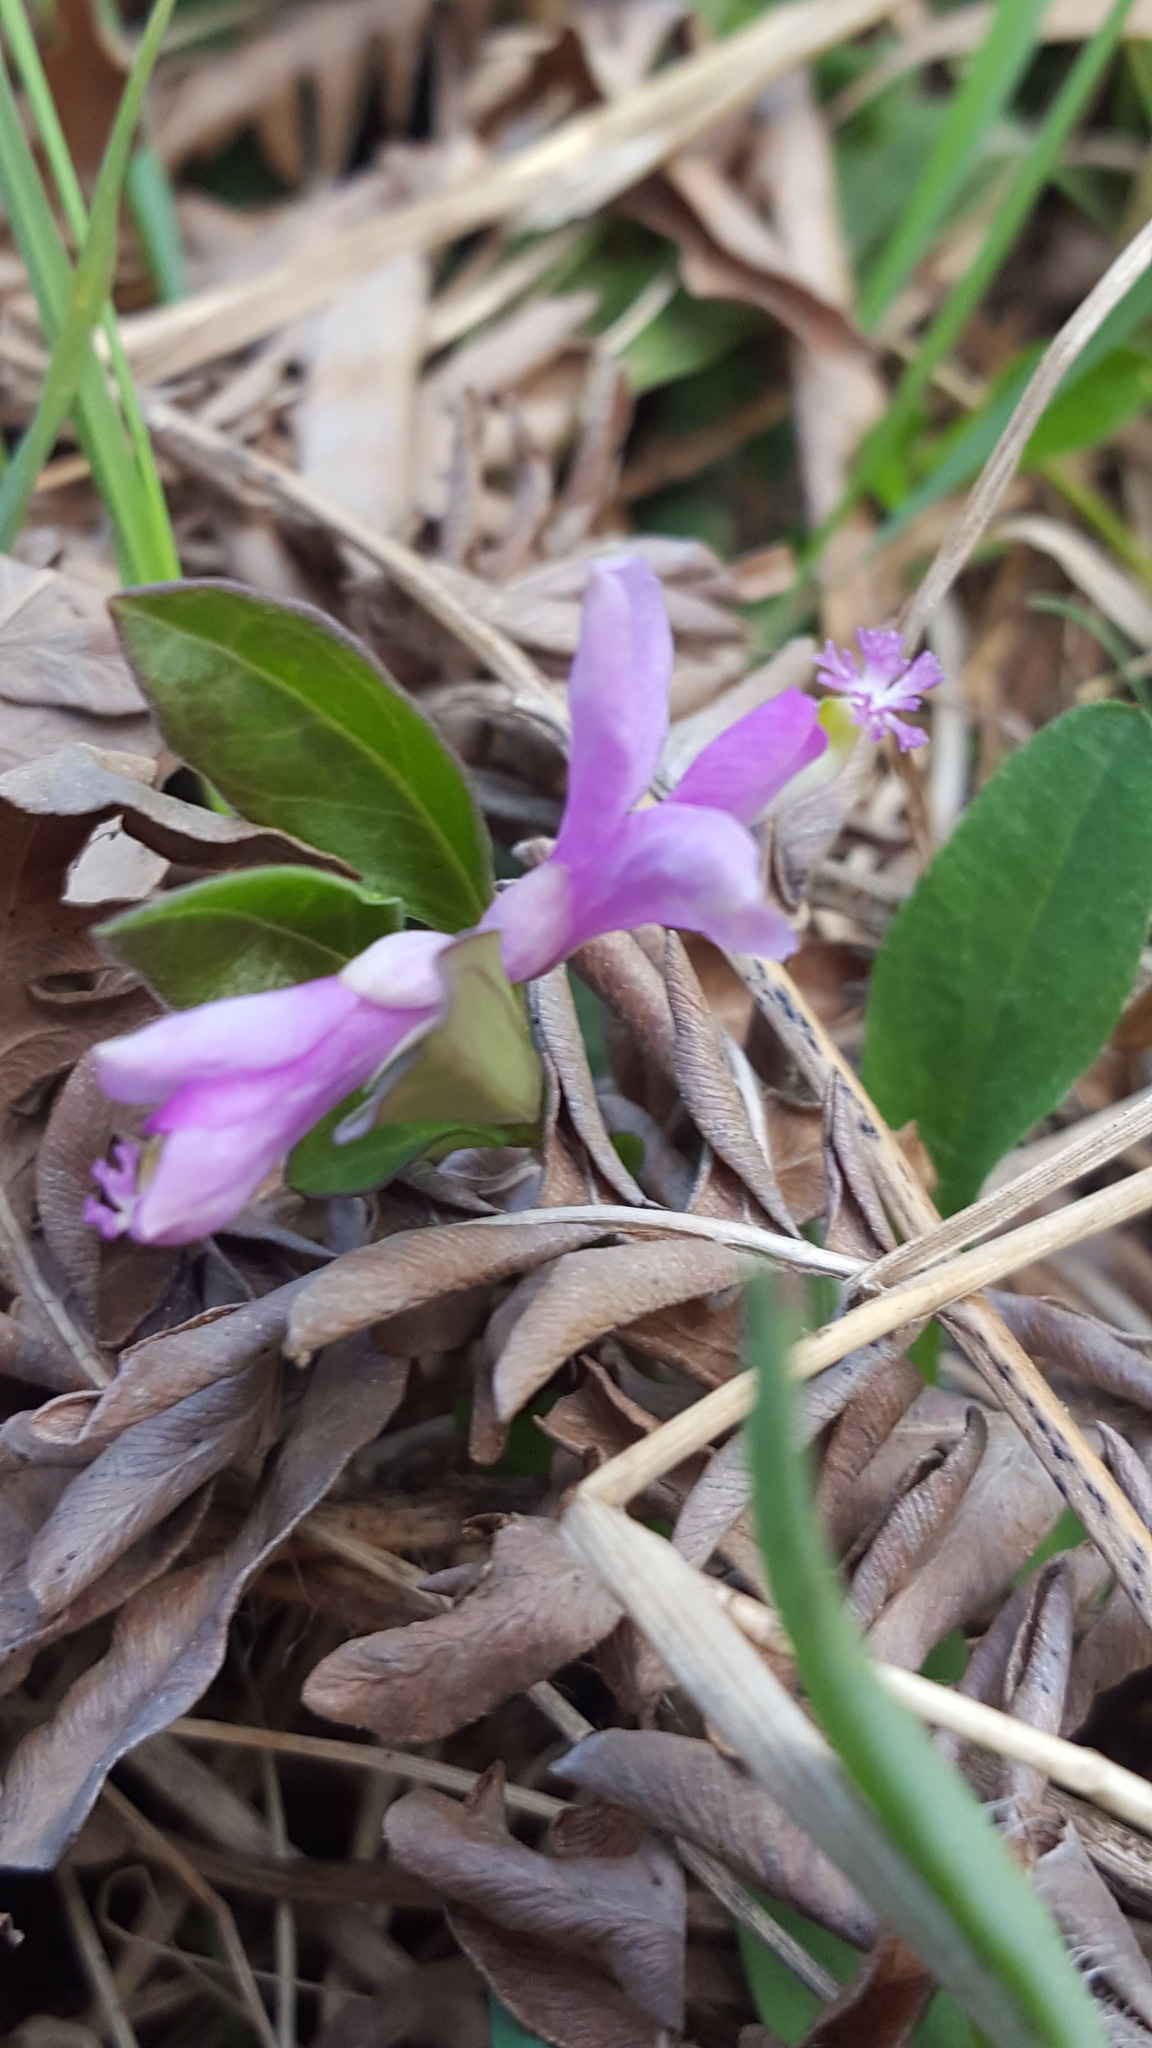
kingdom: Plantae
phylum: Tracheophyta
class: Magnoliopsida
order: Fabales
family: Polygalaceae
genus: Polygaloides
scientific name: Polygaloides paucifolia
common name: Bird-on-the-wing
